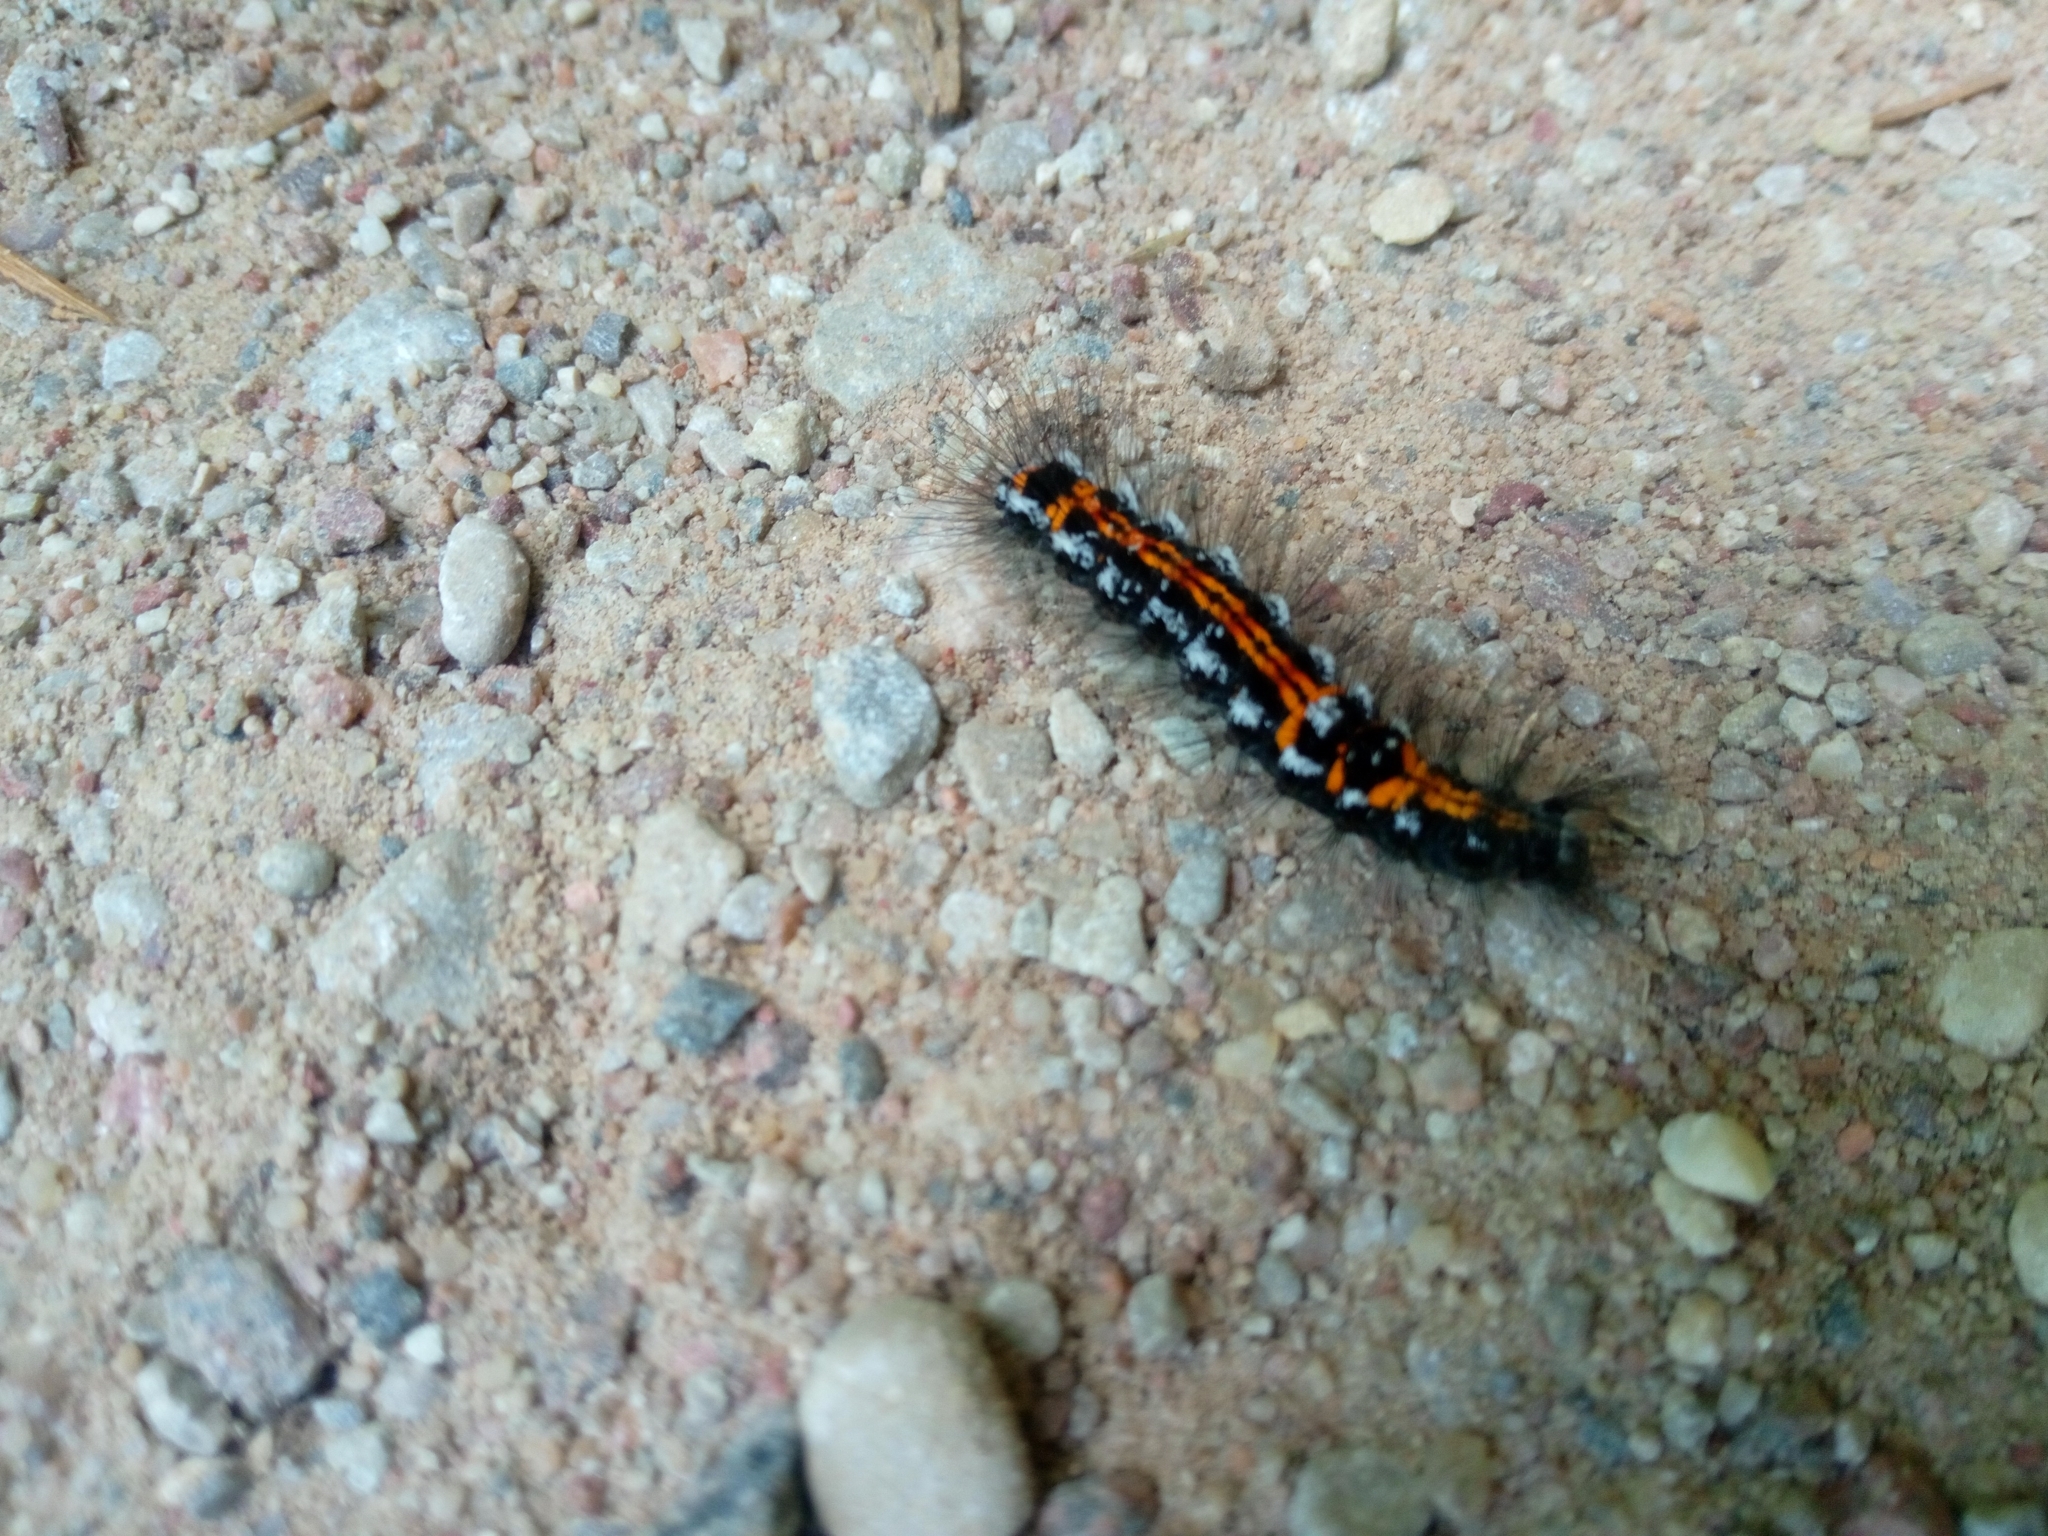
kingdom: Animalia
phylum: Arthropoda
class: Insecta
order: Lepidoptera
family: Erebidae
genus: Sphrageidus
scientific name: Sphrageidus similis
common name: Yellow-tail
